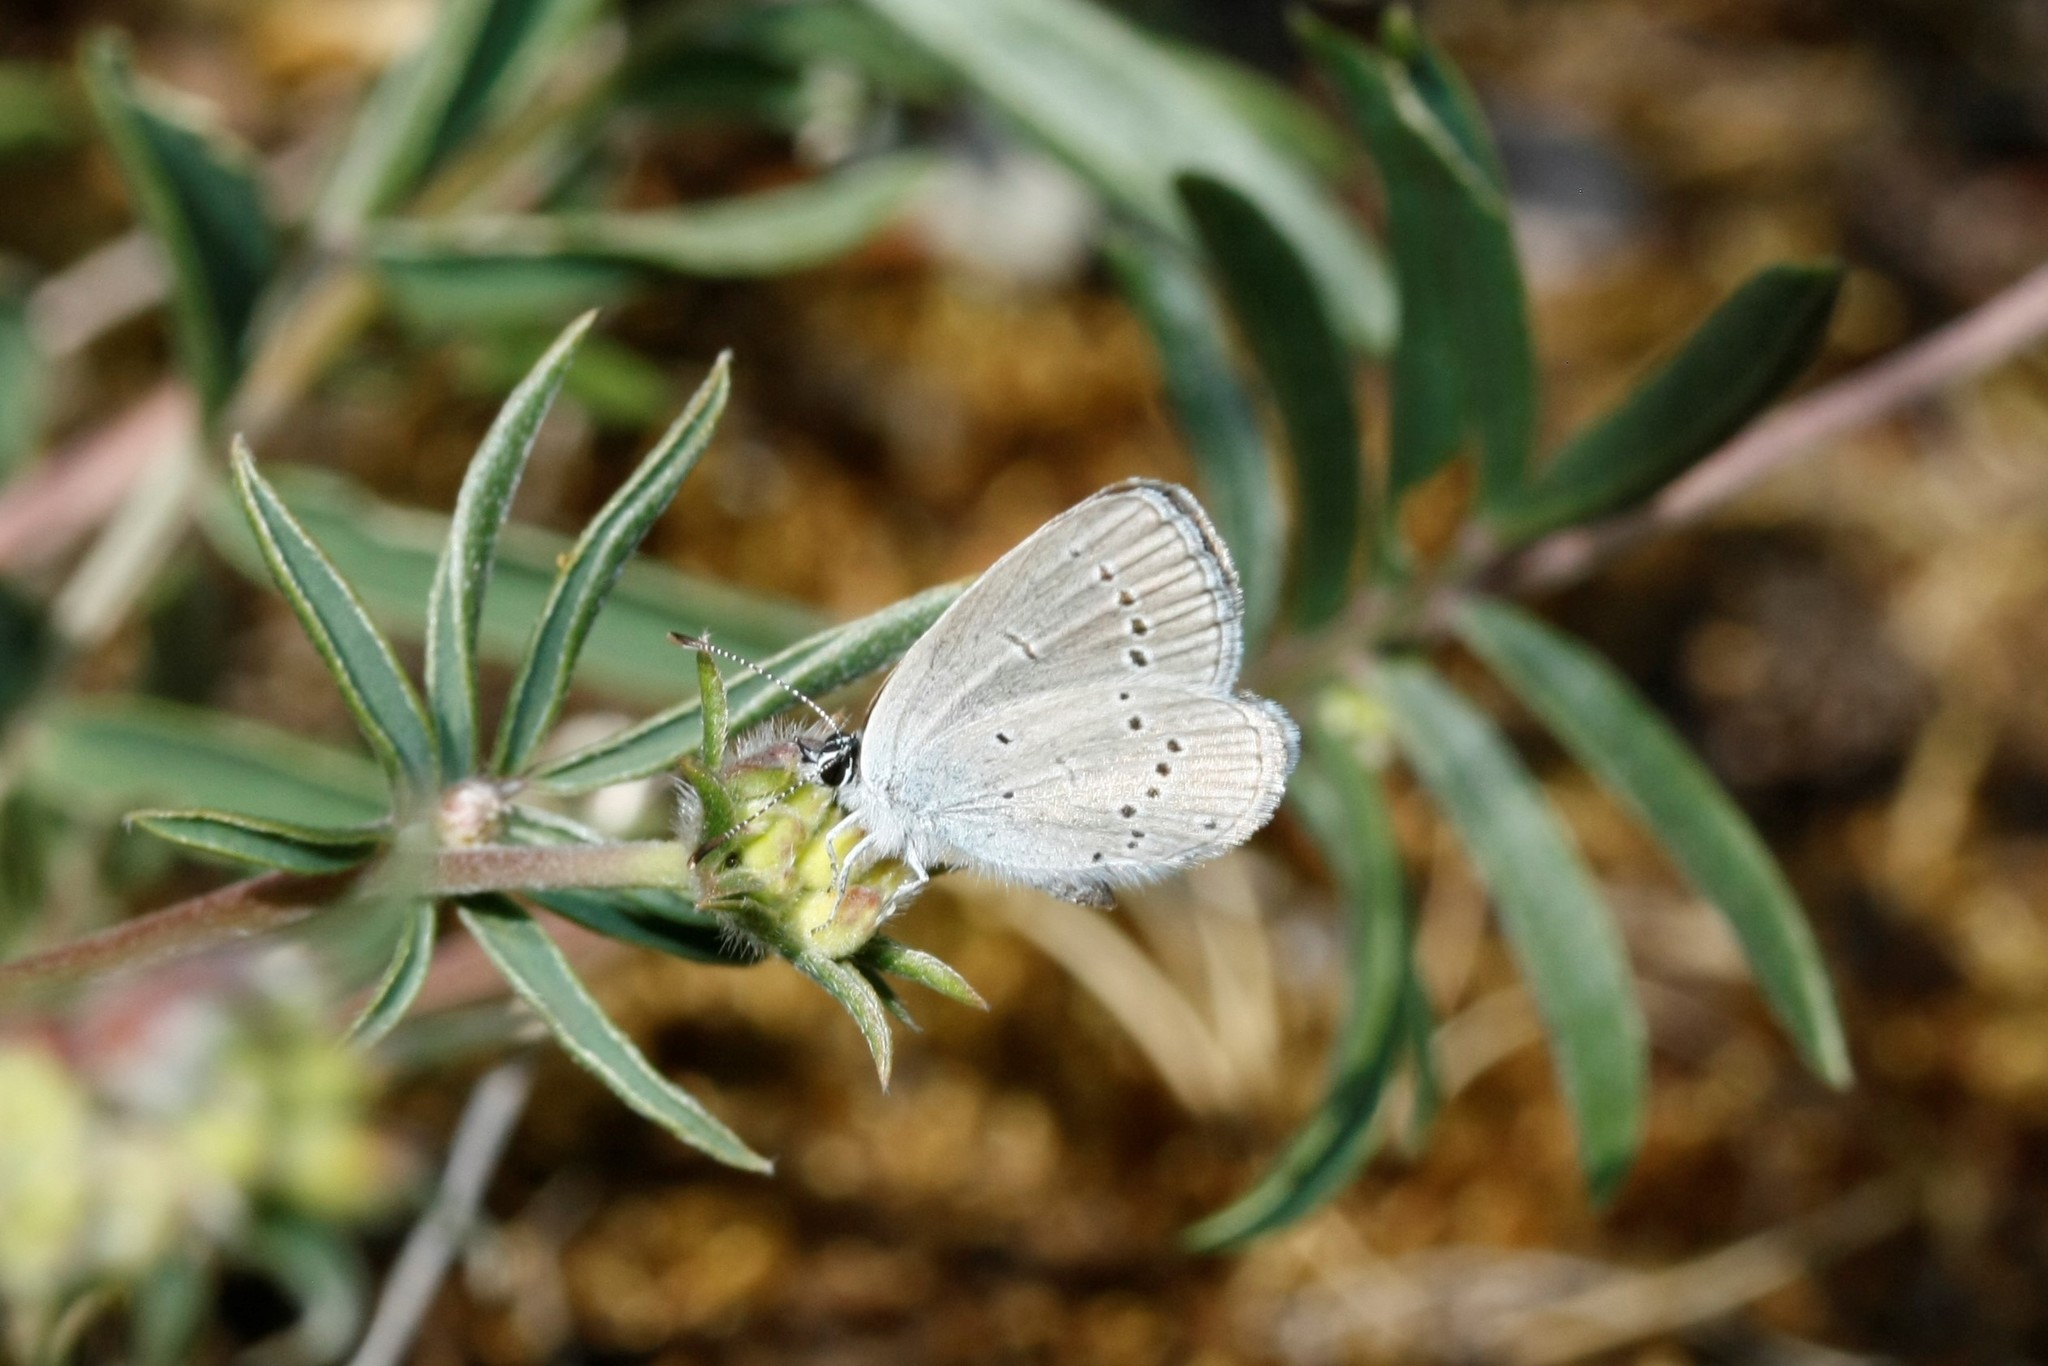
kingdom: Animalia
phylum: Arthropoda
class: Insecta
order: Lepidoptera
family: Lycaenidae
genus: Cupido
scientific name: Cupido minimus
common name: Small blue
